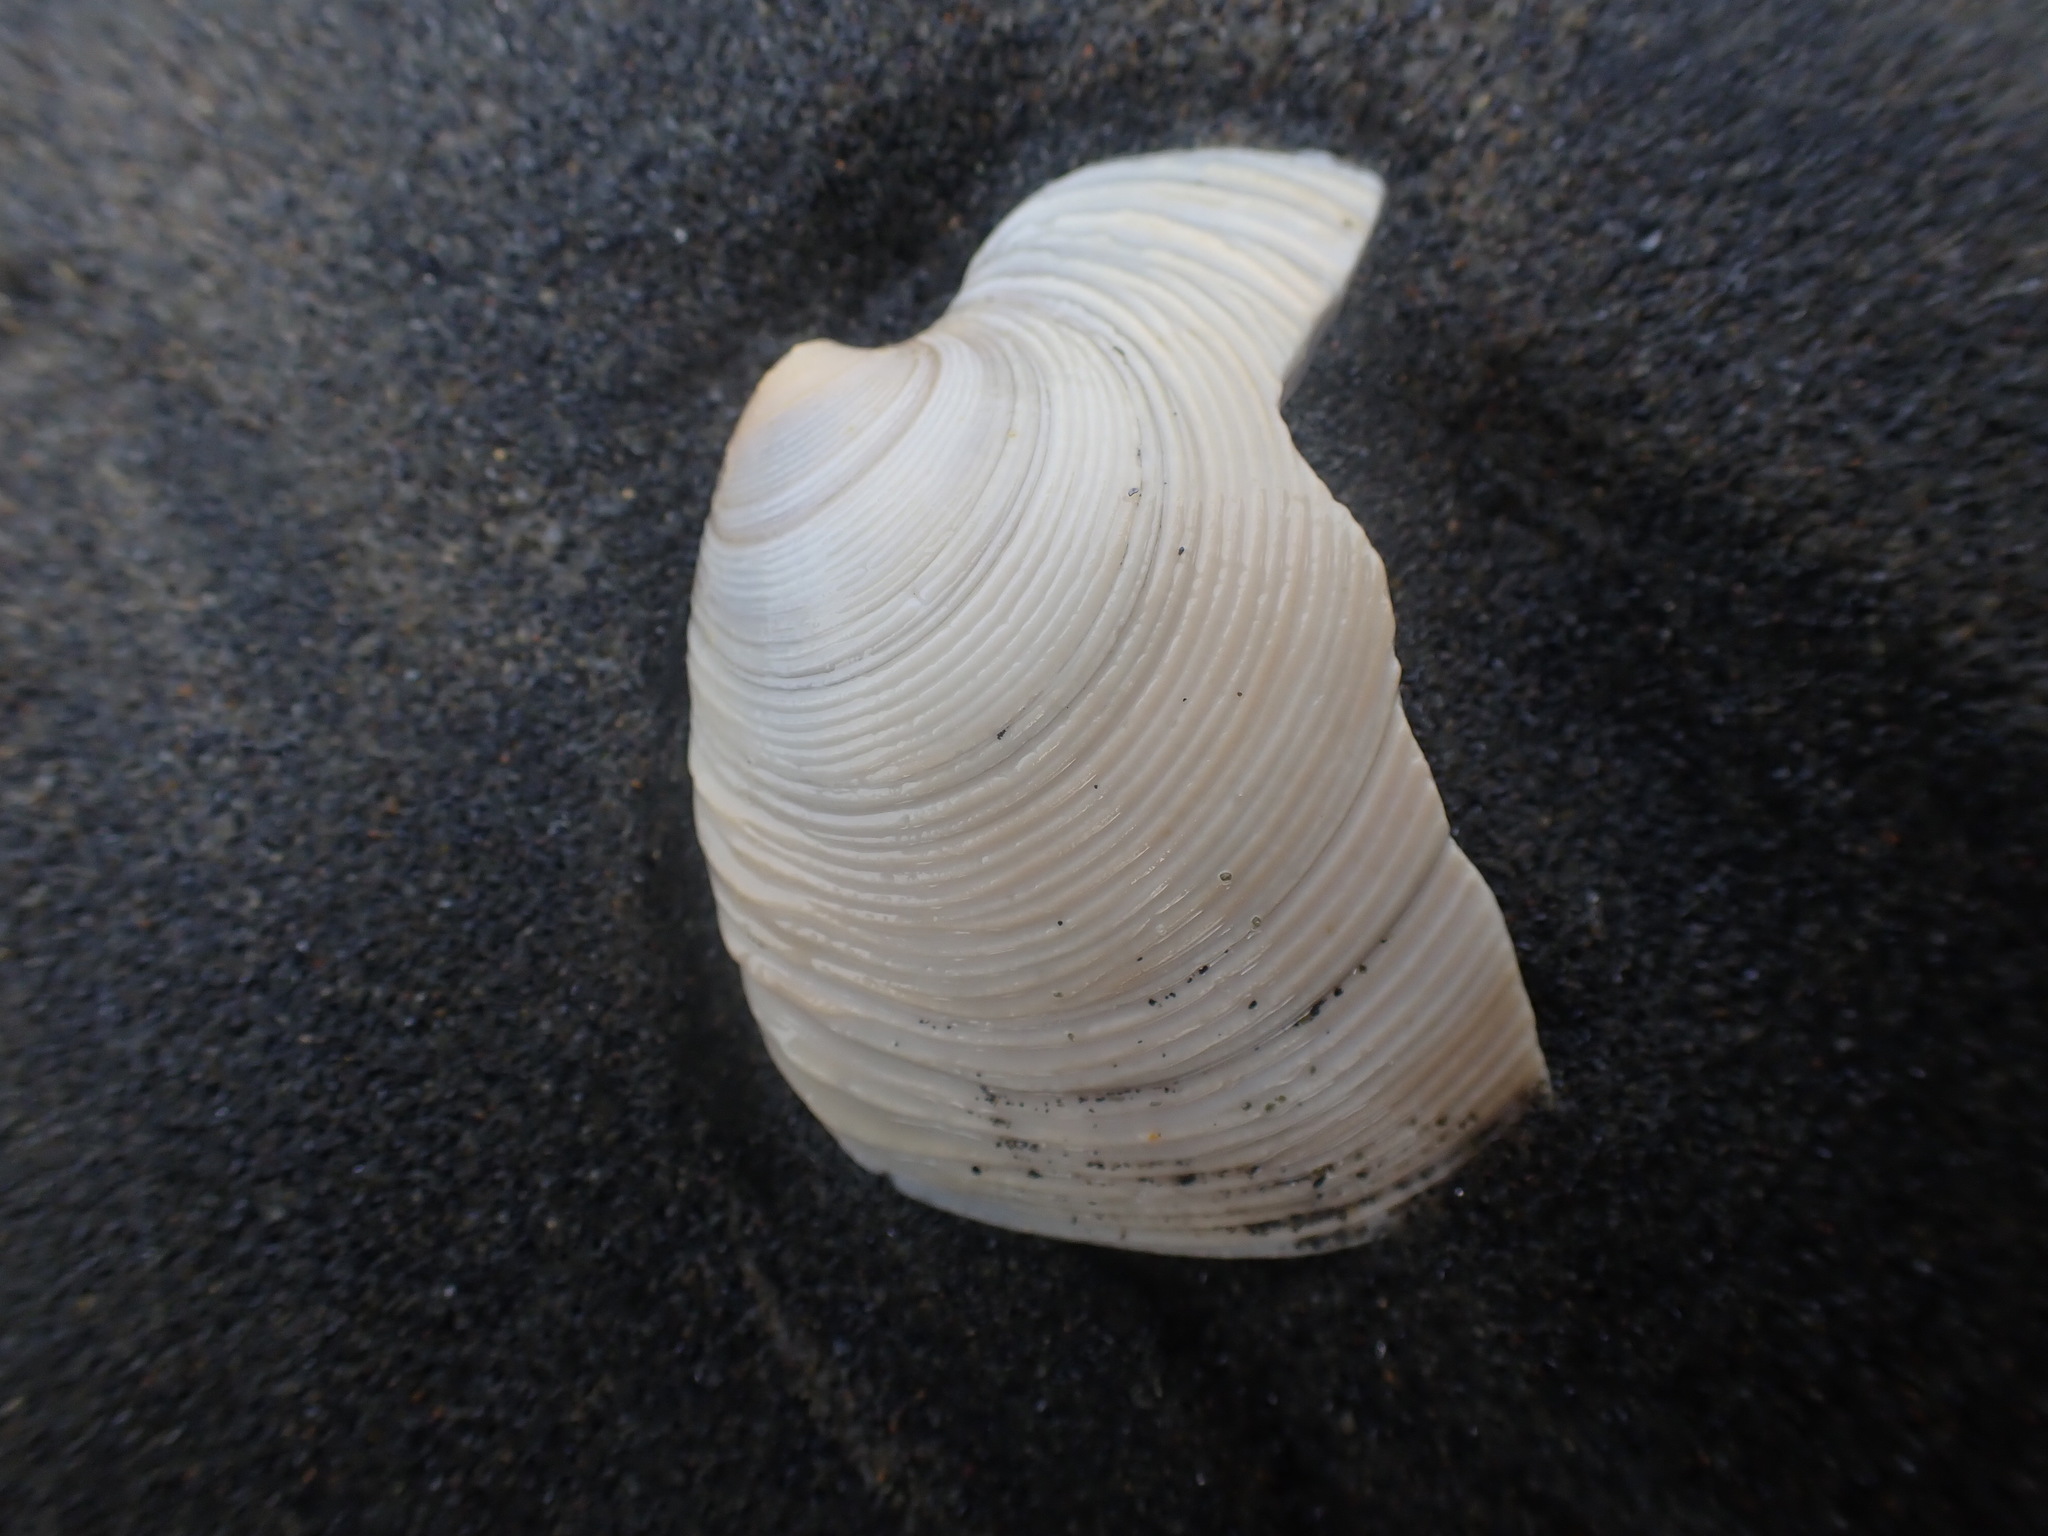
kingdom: Animalia
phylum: Mollusca
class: Bivalvia
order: Venerida
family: Veneridae
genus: Dosinia
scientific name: Dosinia anus
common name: Old-woman dosinia
